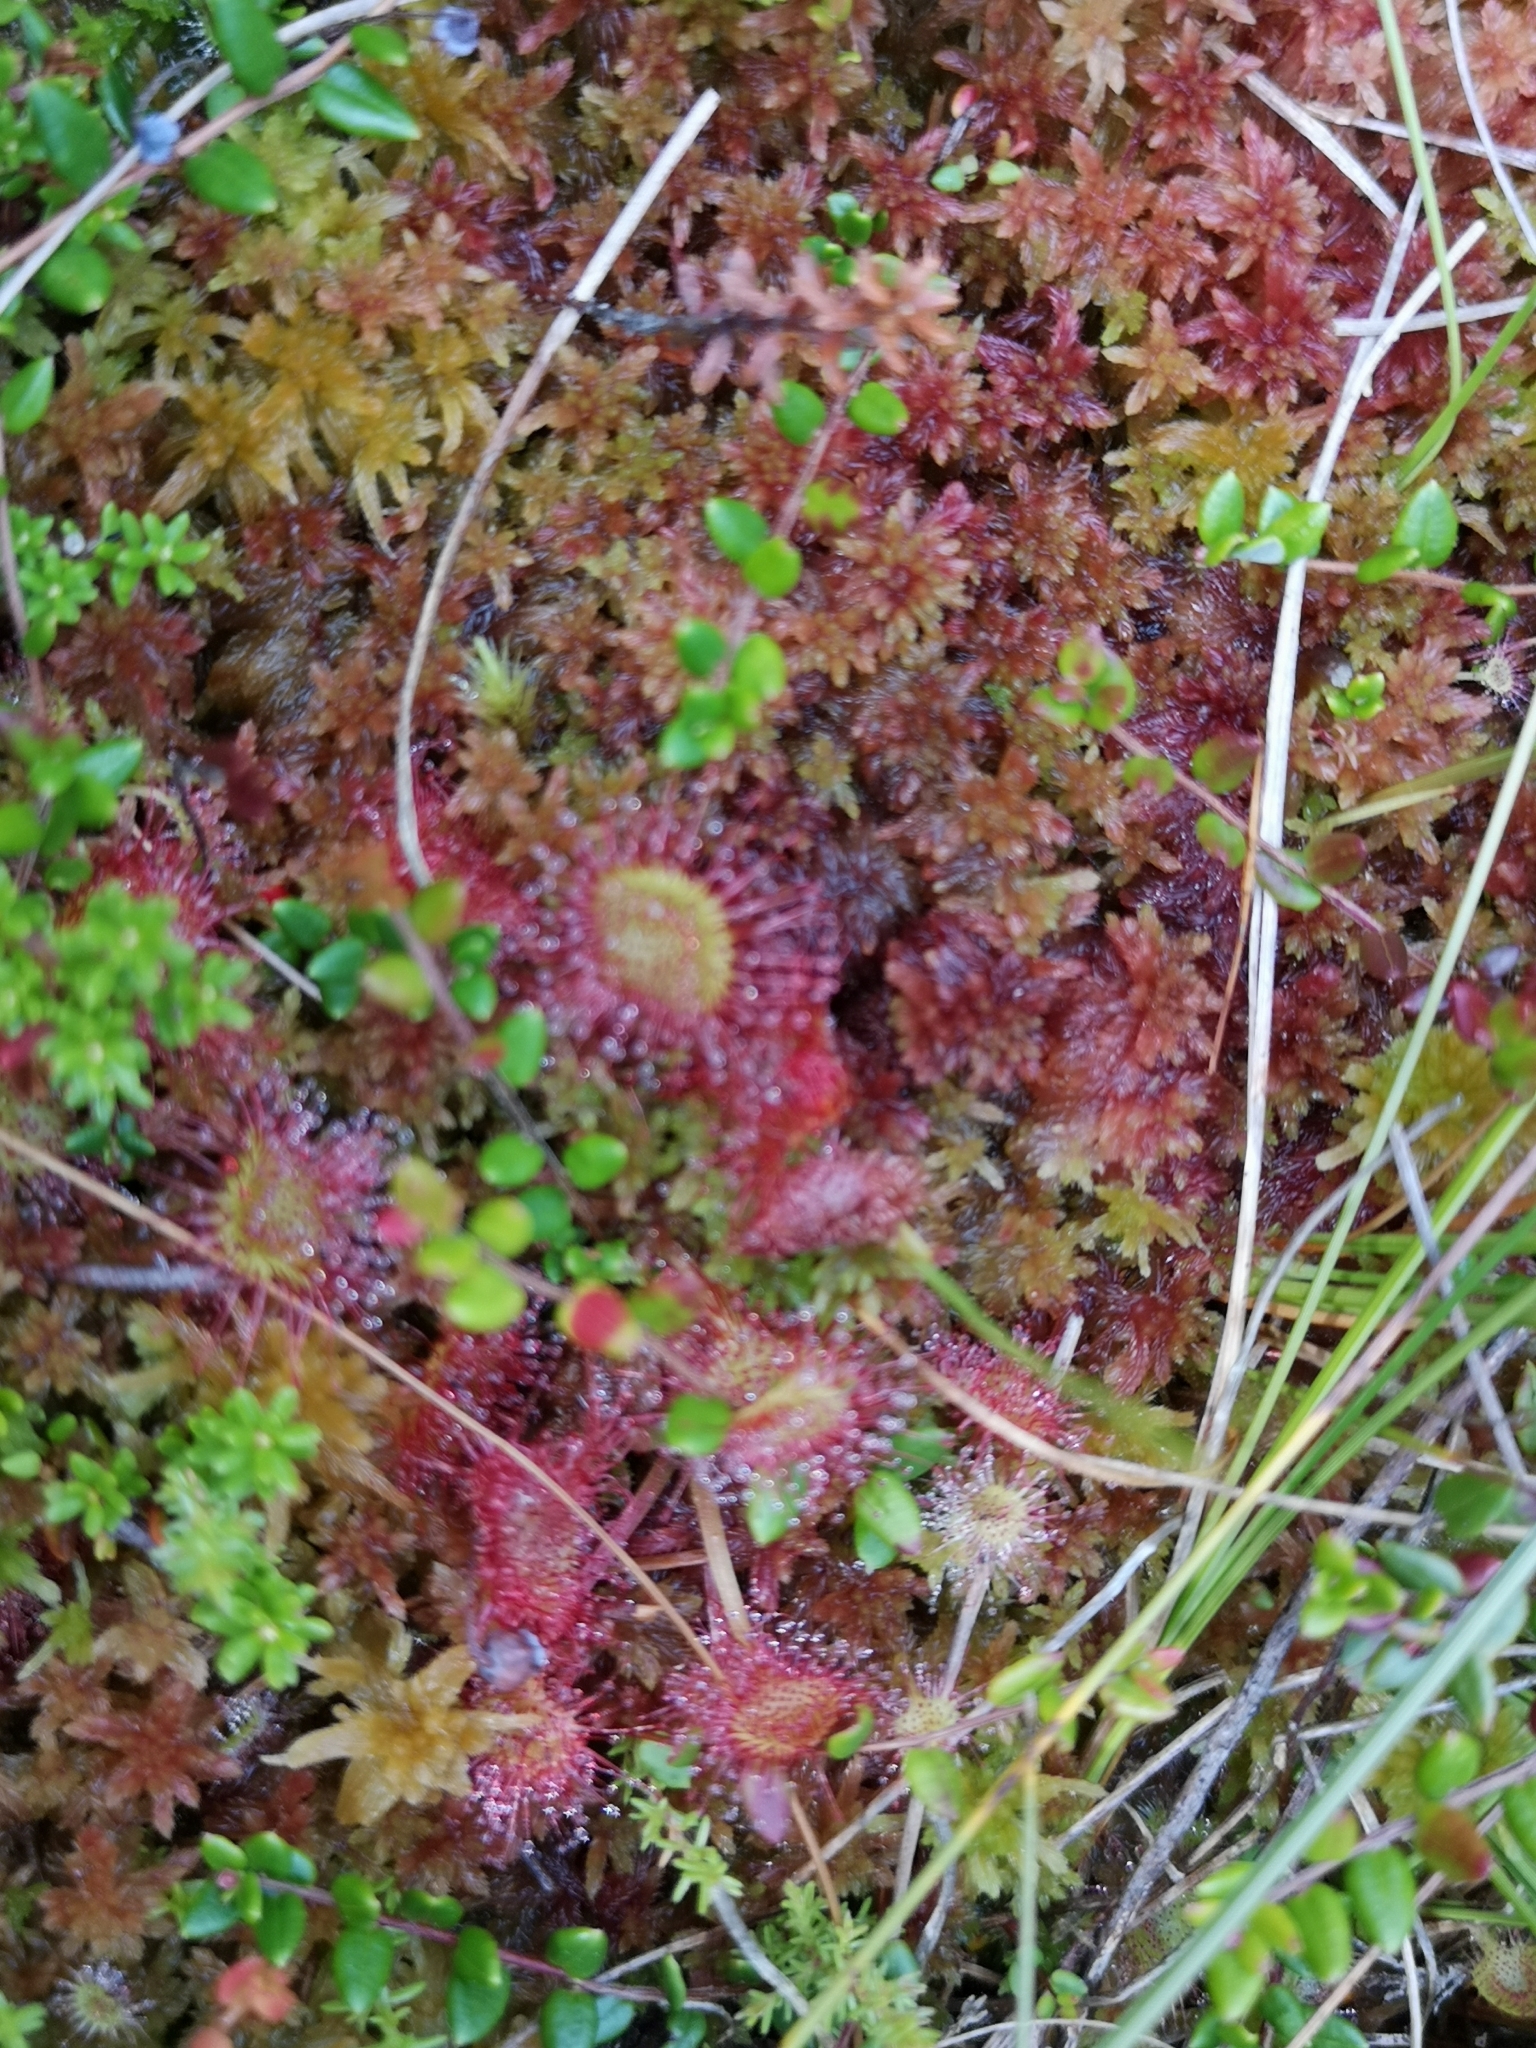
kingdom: Plantae
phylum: Tracheophyta
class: Magnoliopsida
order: Caryophyllales
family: Droseraceae
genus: Drosera
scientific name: Drosera rotundifolia
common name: Round-leaved sundew
